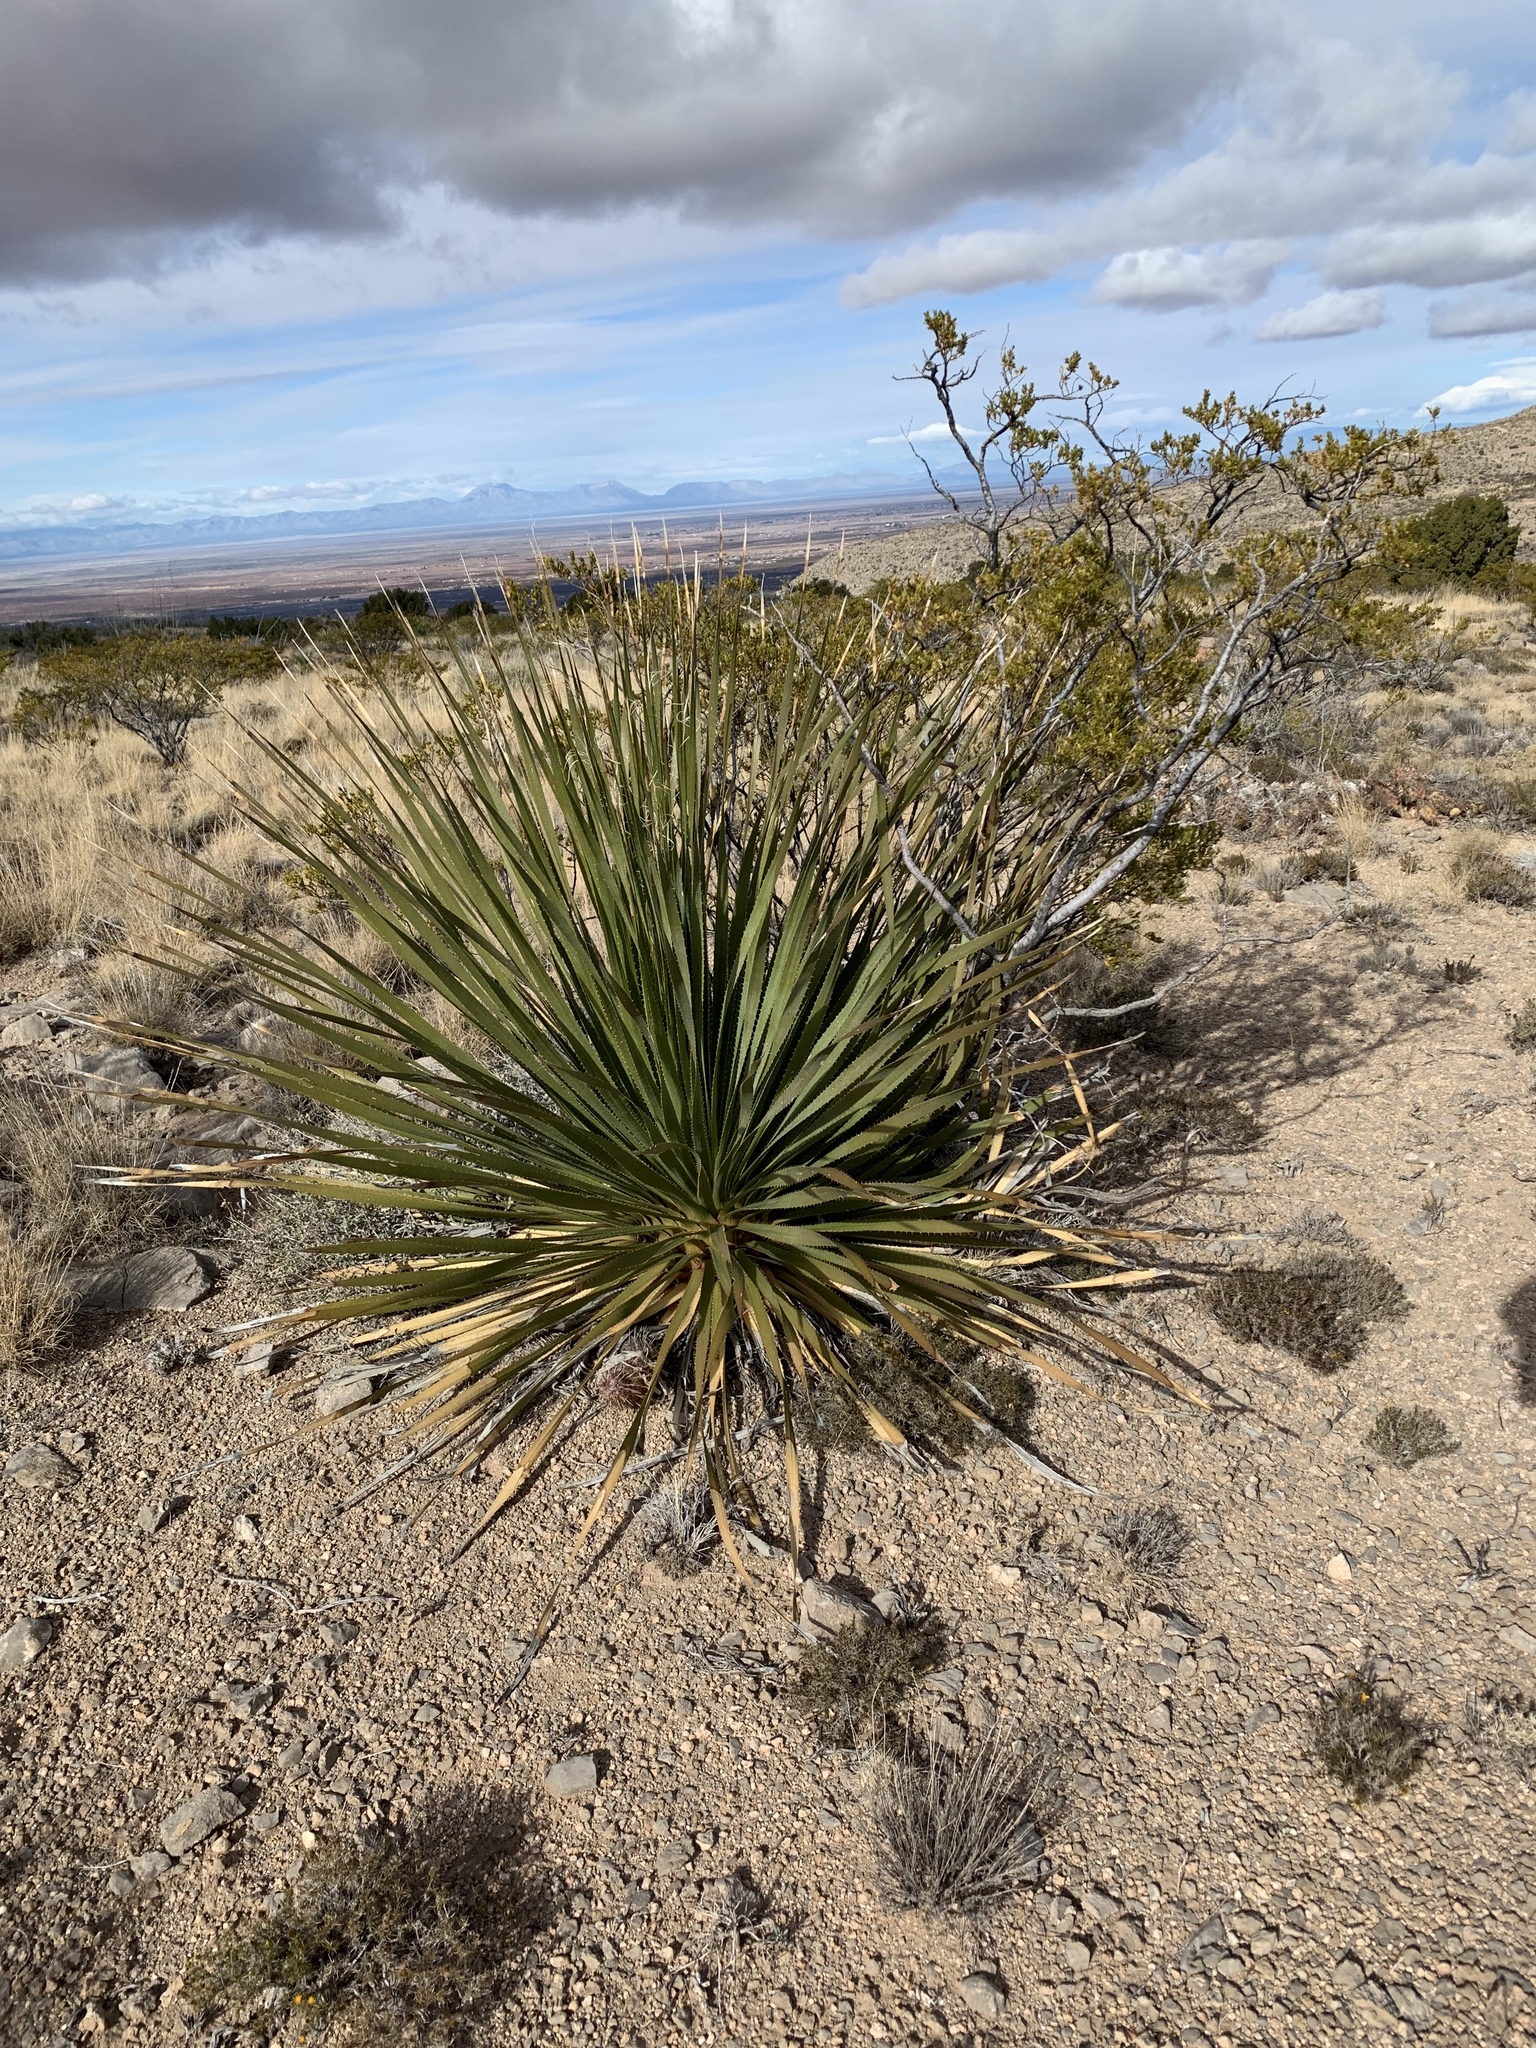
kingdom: Plantae
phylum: Tracheophyta
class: Liliopsida
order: Asparagales
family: Asparagaceae
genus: Dasylirion
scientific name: Dasylirion wheeleri
